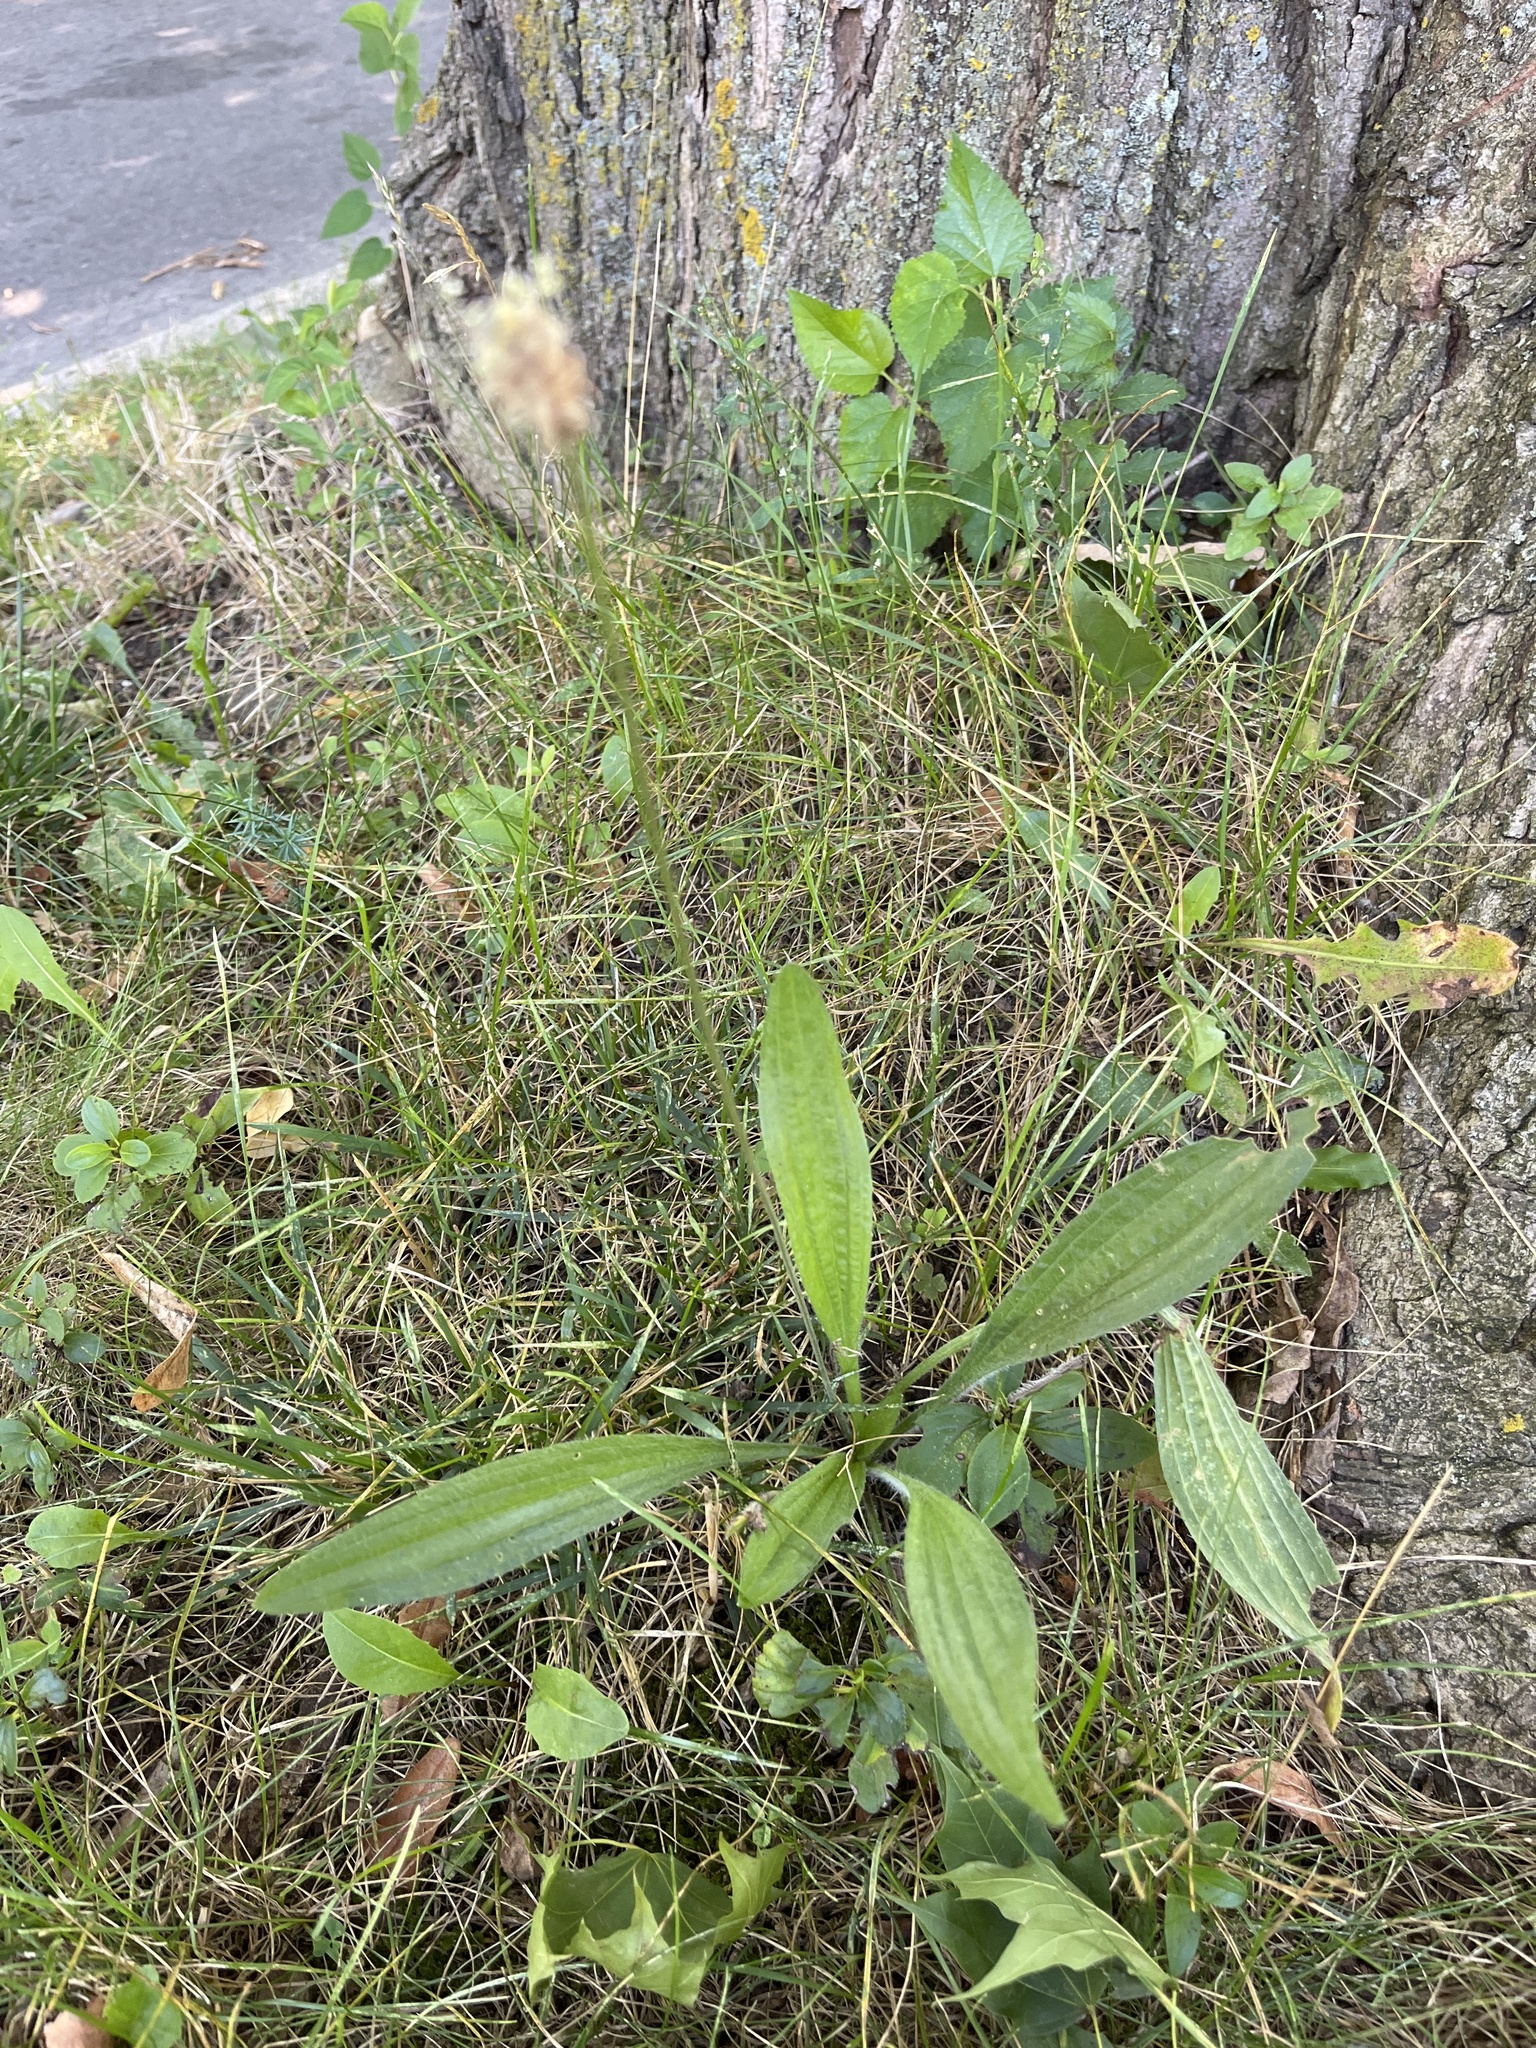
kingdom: Plantae
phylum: Tracheophyta
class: Magnoliopsida
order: Lamiales
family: Plantaginaceae
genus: Plantago
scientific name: Plantago lanceolata
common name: Ribwort plantain
